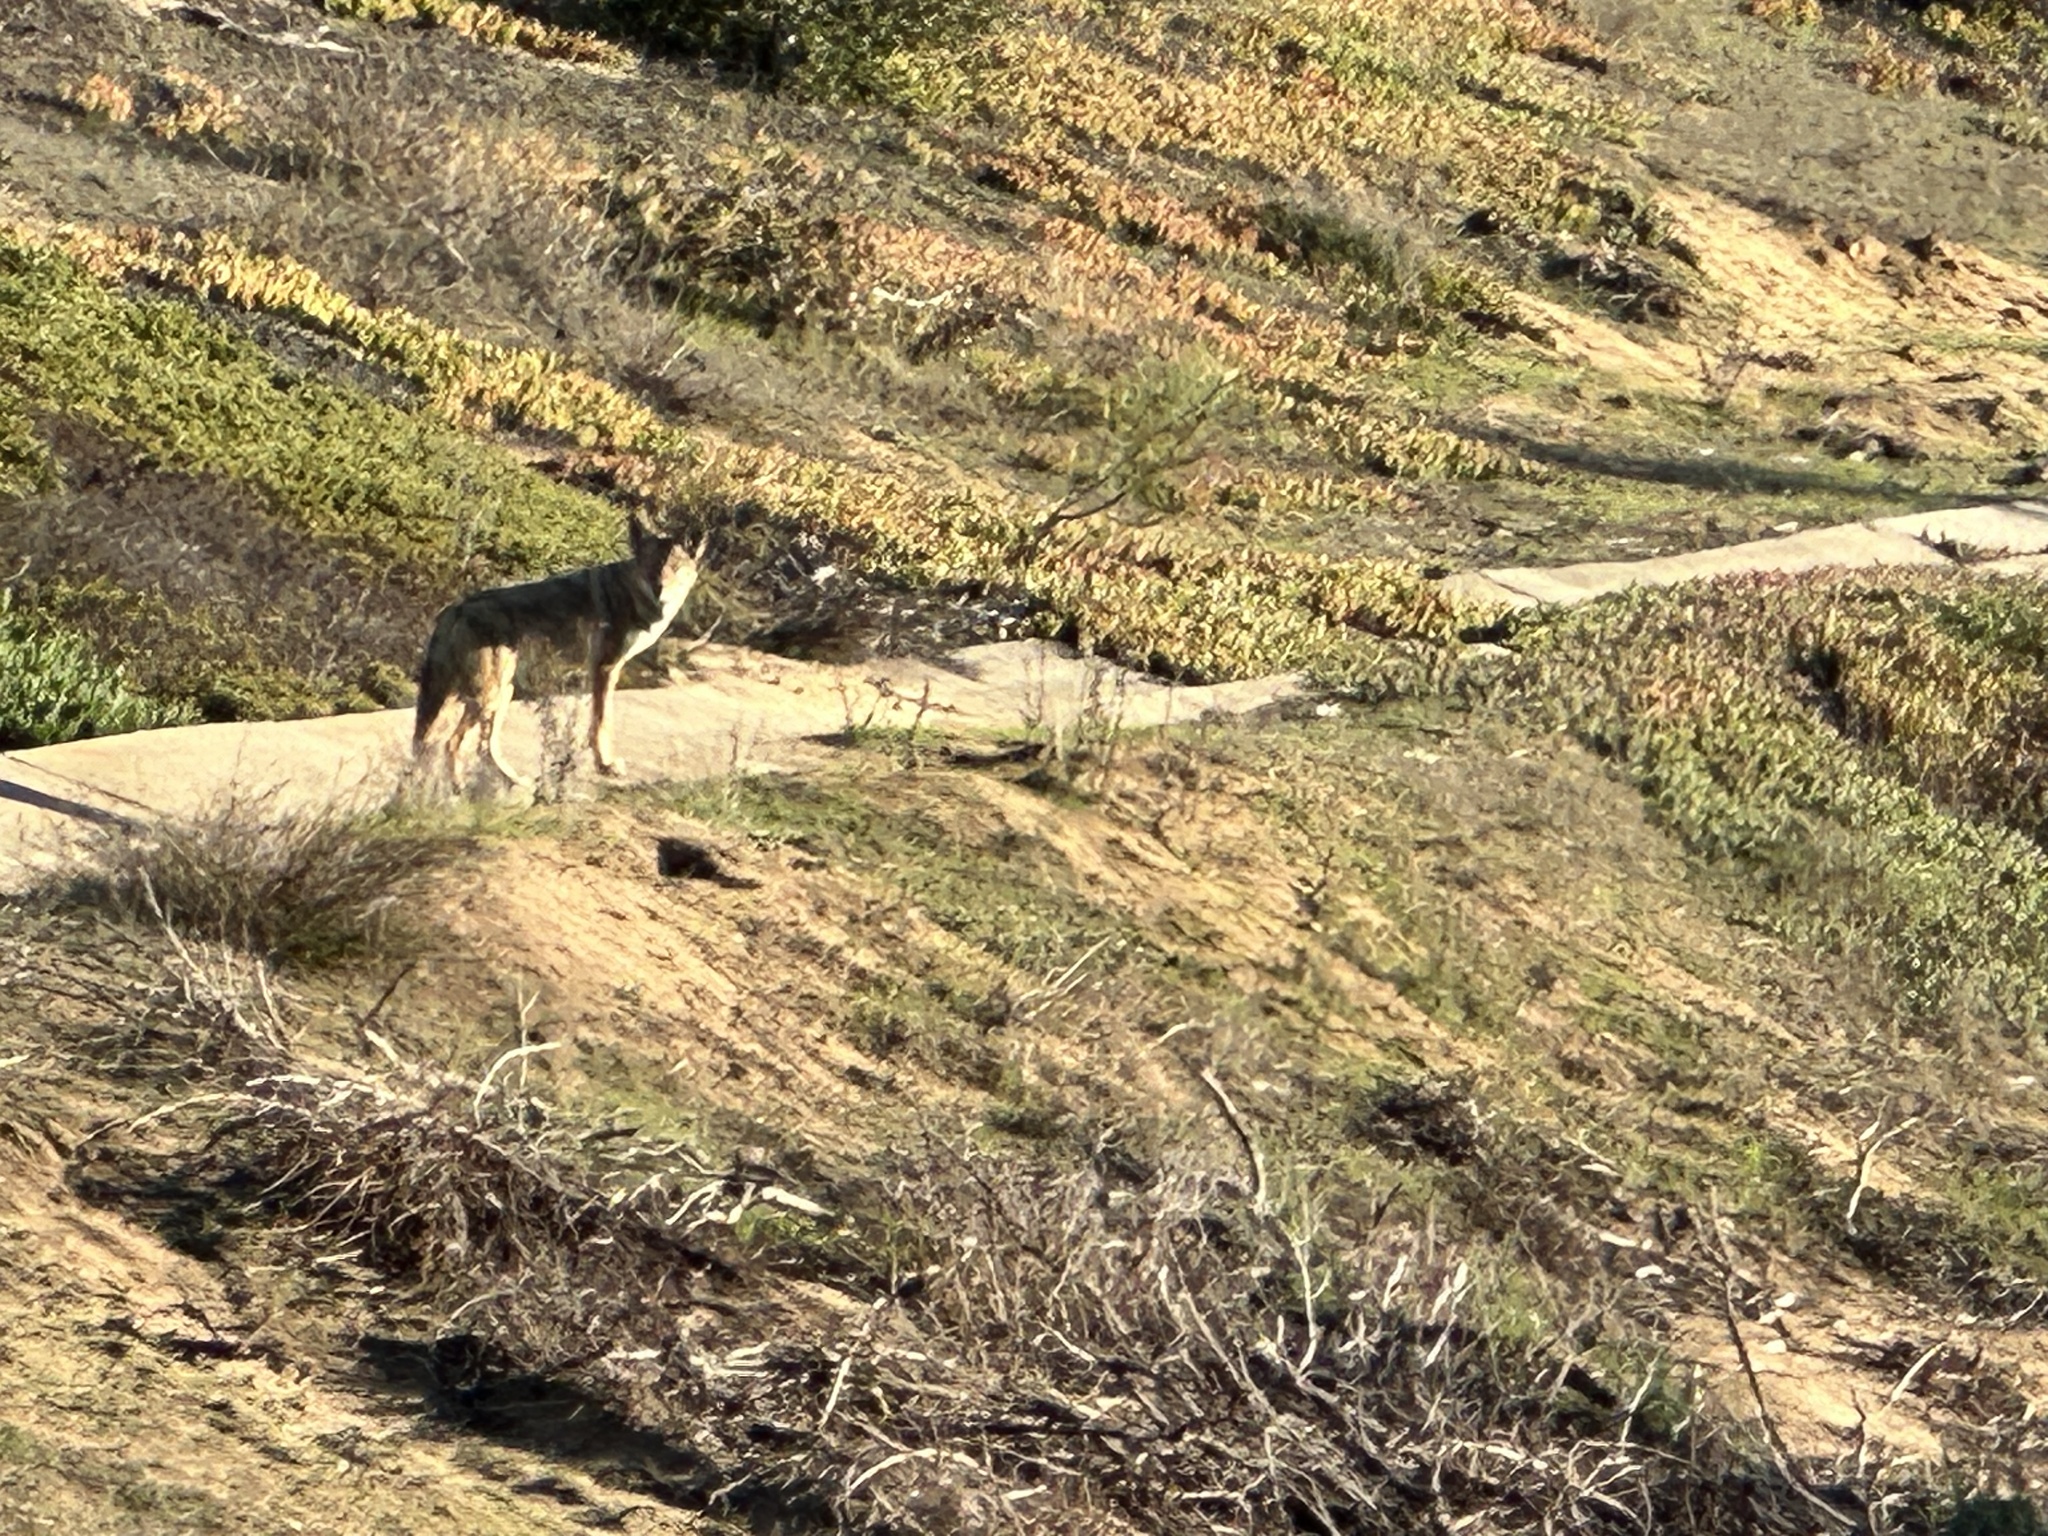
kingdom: Animalia
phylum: Chordata
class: Mammalia
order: Carnivora
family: Canidae
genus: Canis
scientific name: Canis latrans
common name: Coyote
